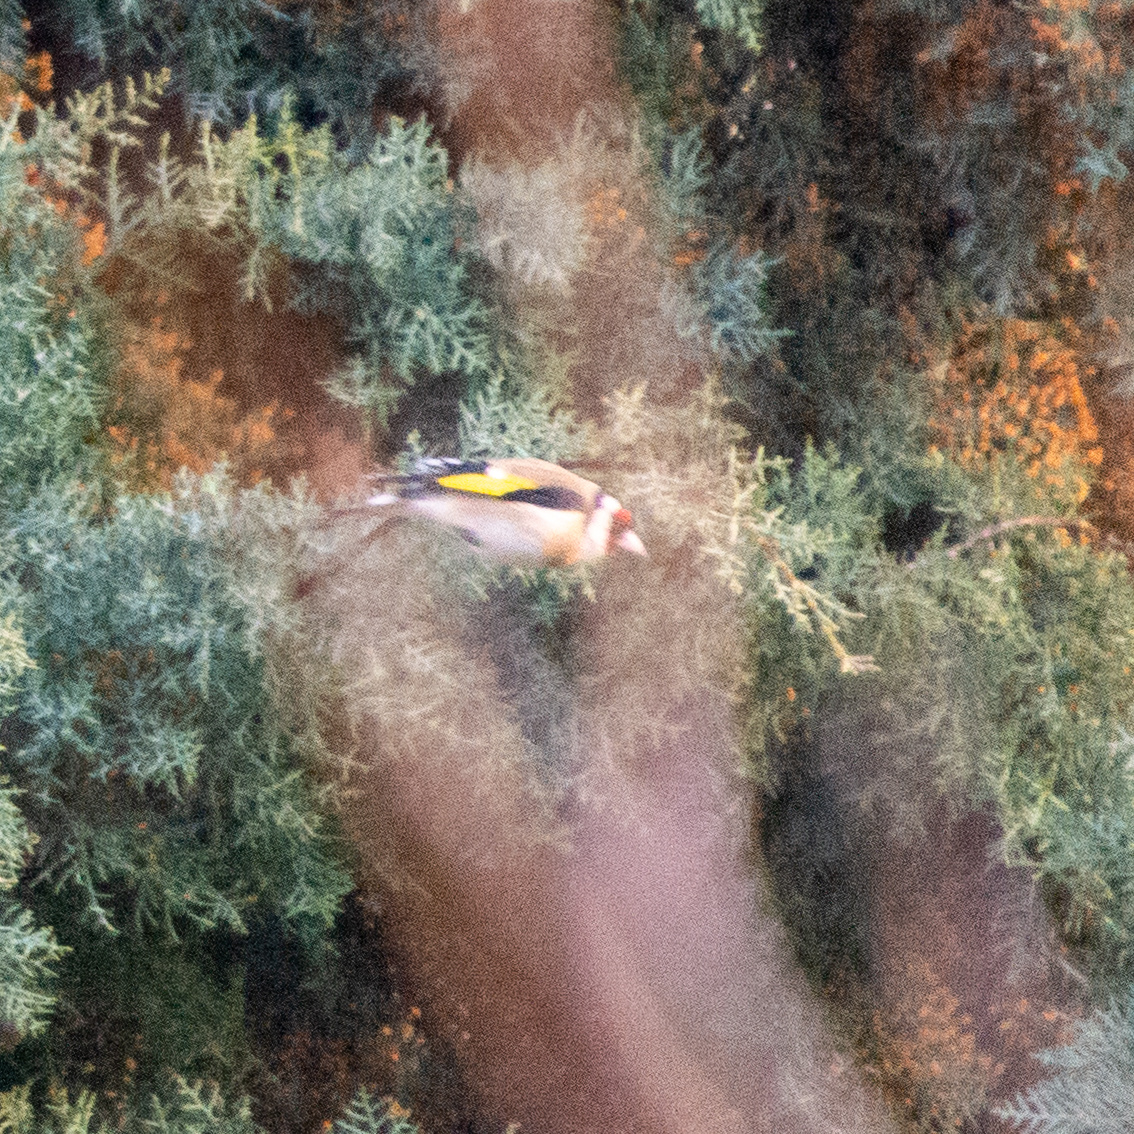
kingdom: Animalia
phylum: Chordata
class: Aves
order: Passeriformes
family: Fringillidae
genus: Carduelis
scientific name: Carduelis carduelis
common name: European goldfinch
